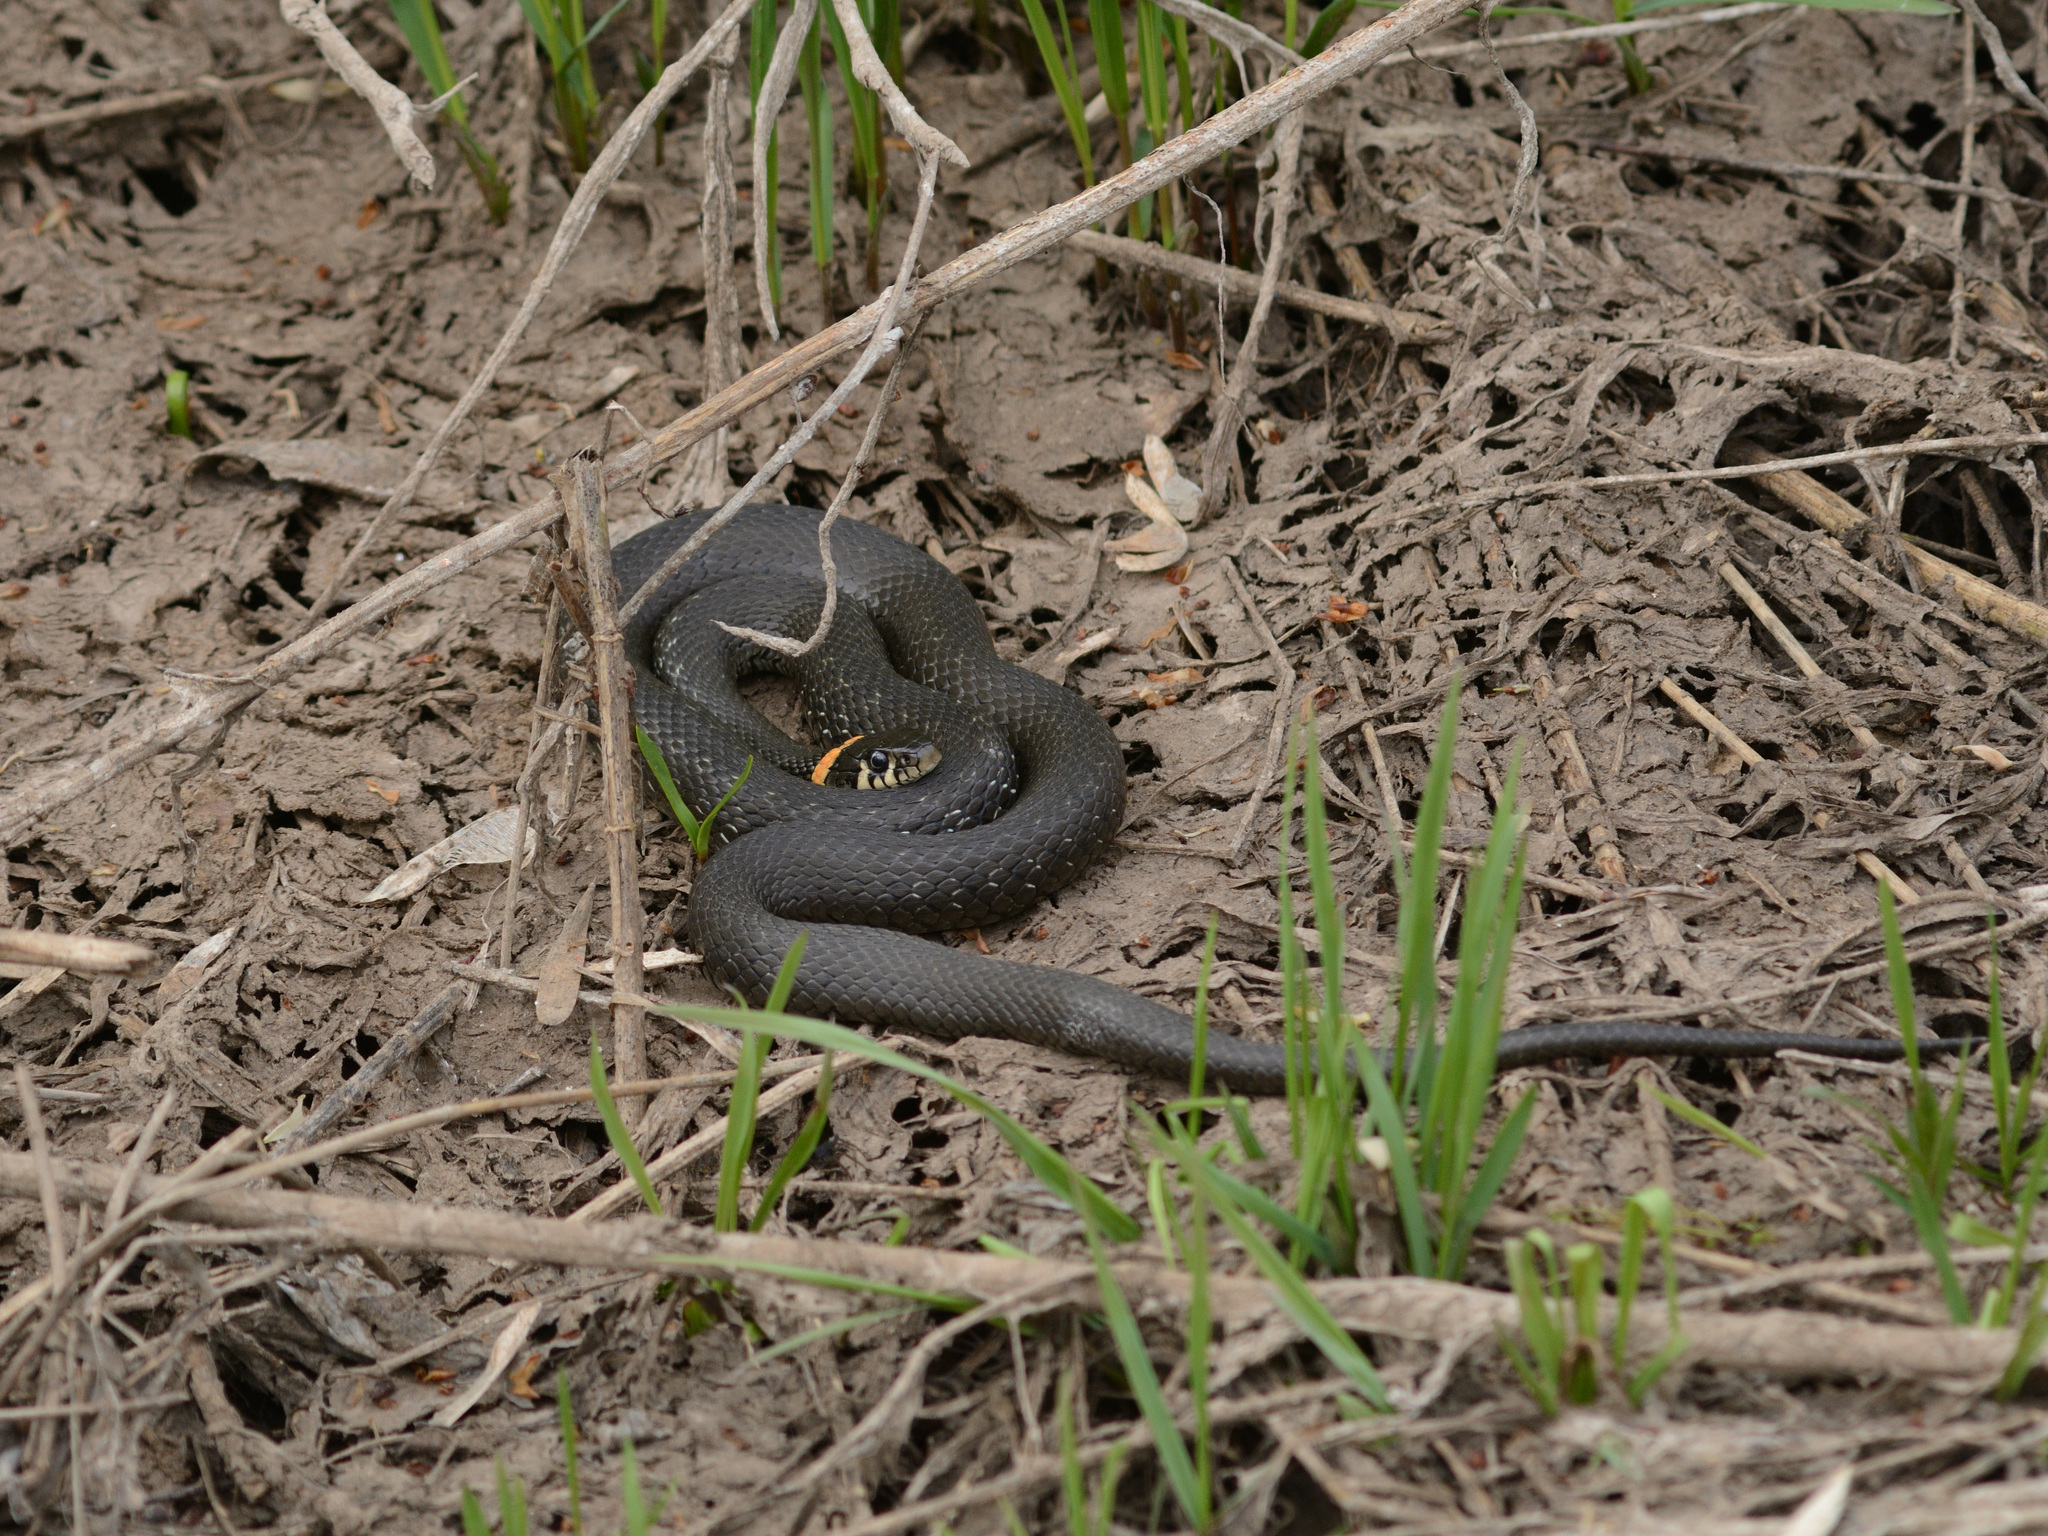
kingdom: Animalia
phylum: Chordata
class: Squamata
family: Colubridae
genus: Natrix
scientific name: Natrix natrix
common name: Grass snake
